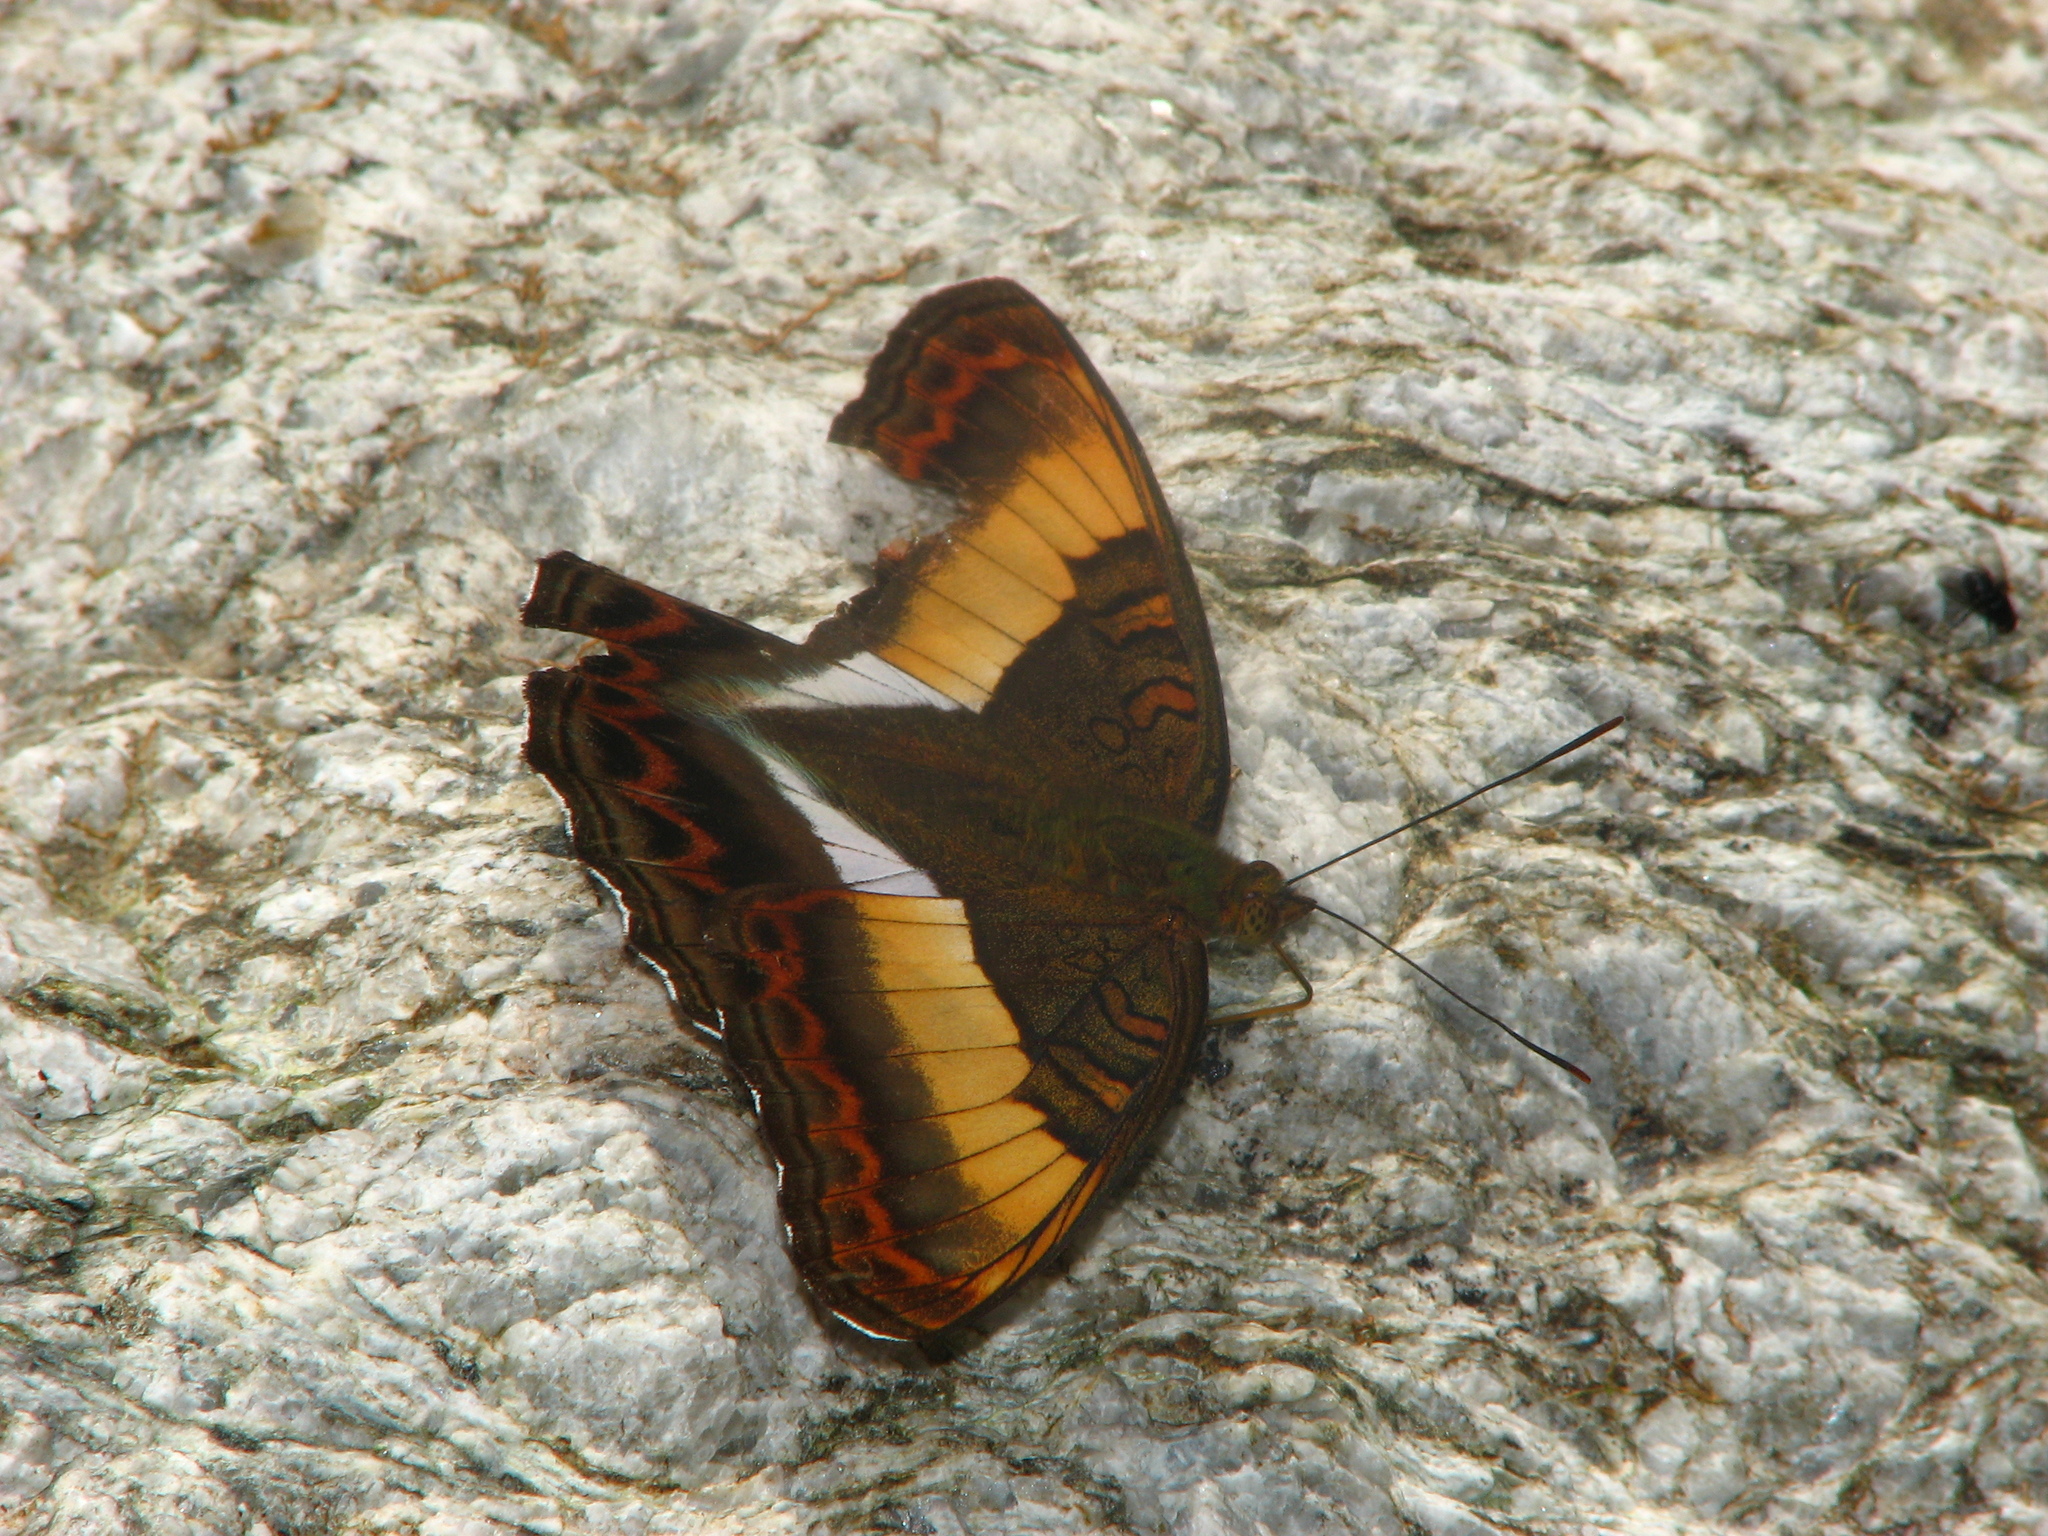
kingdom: Animalia
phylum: Arthropoda
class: Insecta
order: Lepidoptera
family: Nymphalidae
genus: Limenitis
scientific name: Limenitis Parasarpa zayla
